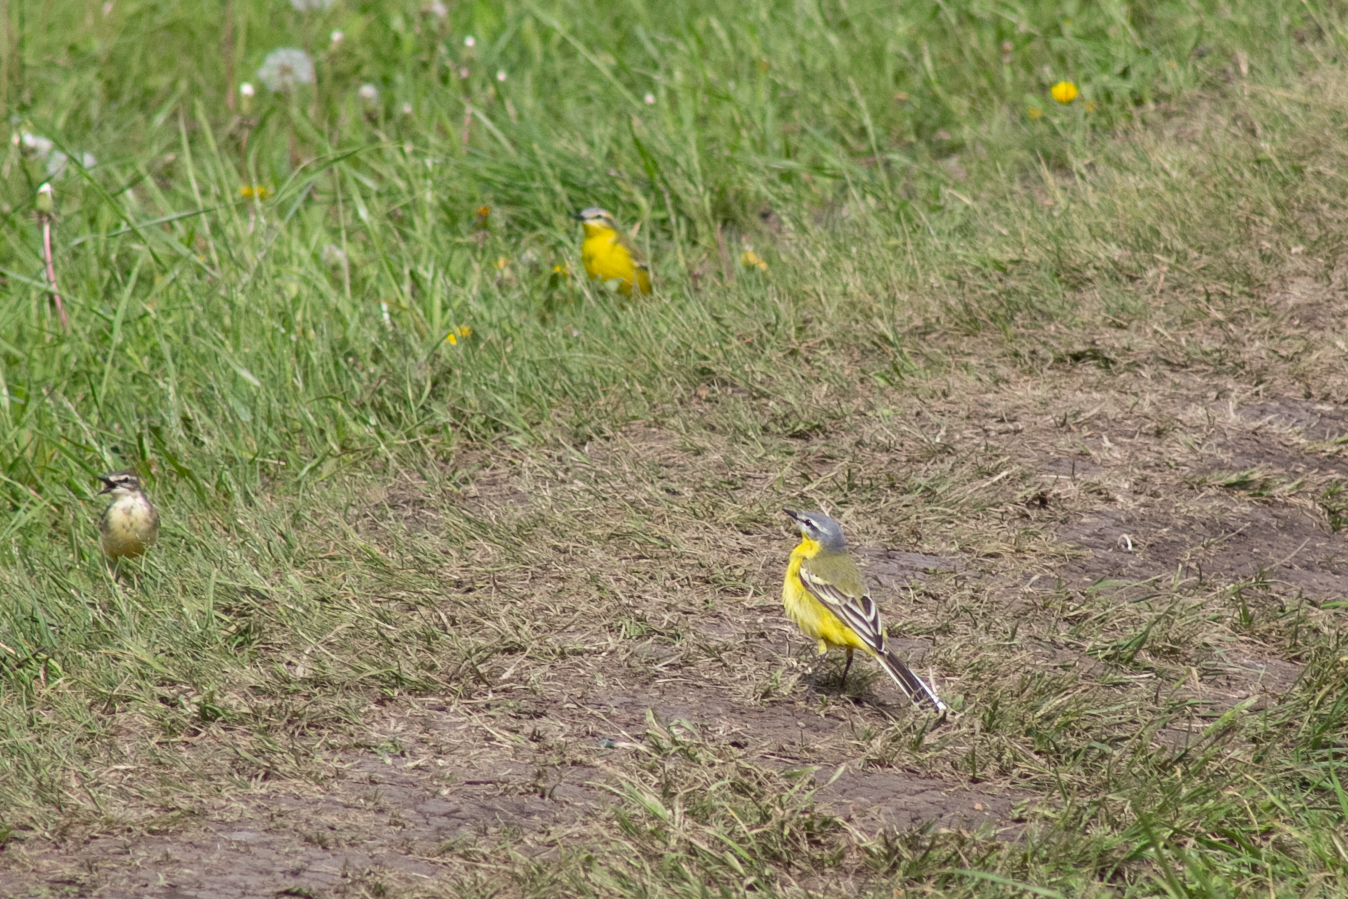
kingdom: Animalia
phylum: Chordata
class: Aves
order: Passeriformes
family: Motacillidae
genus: Motacilla
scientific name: Motacilla flava
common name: Western yellow wagtail
